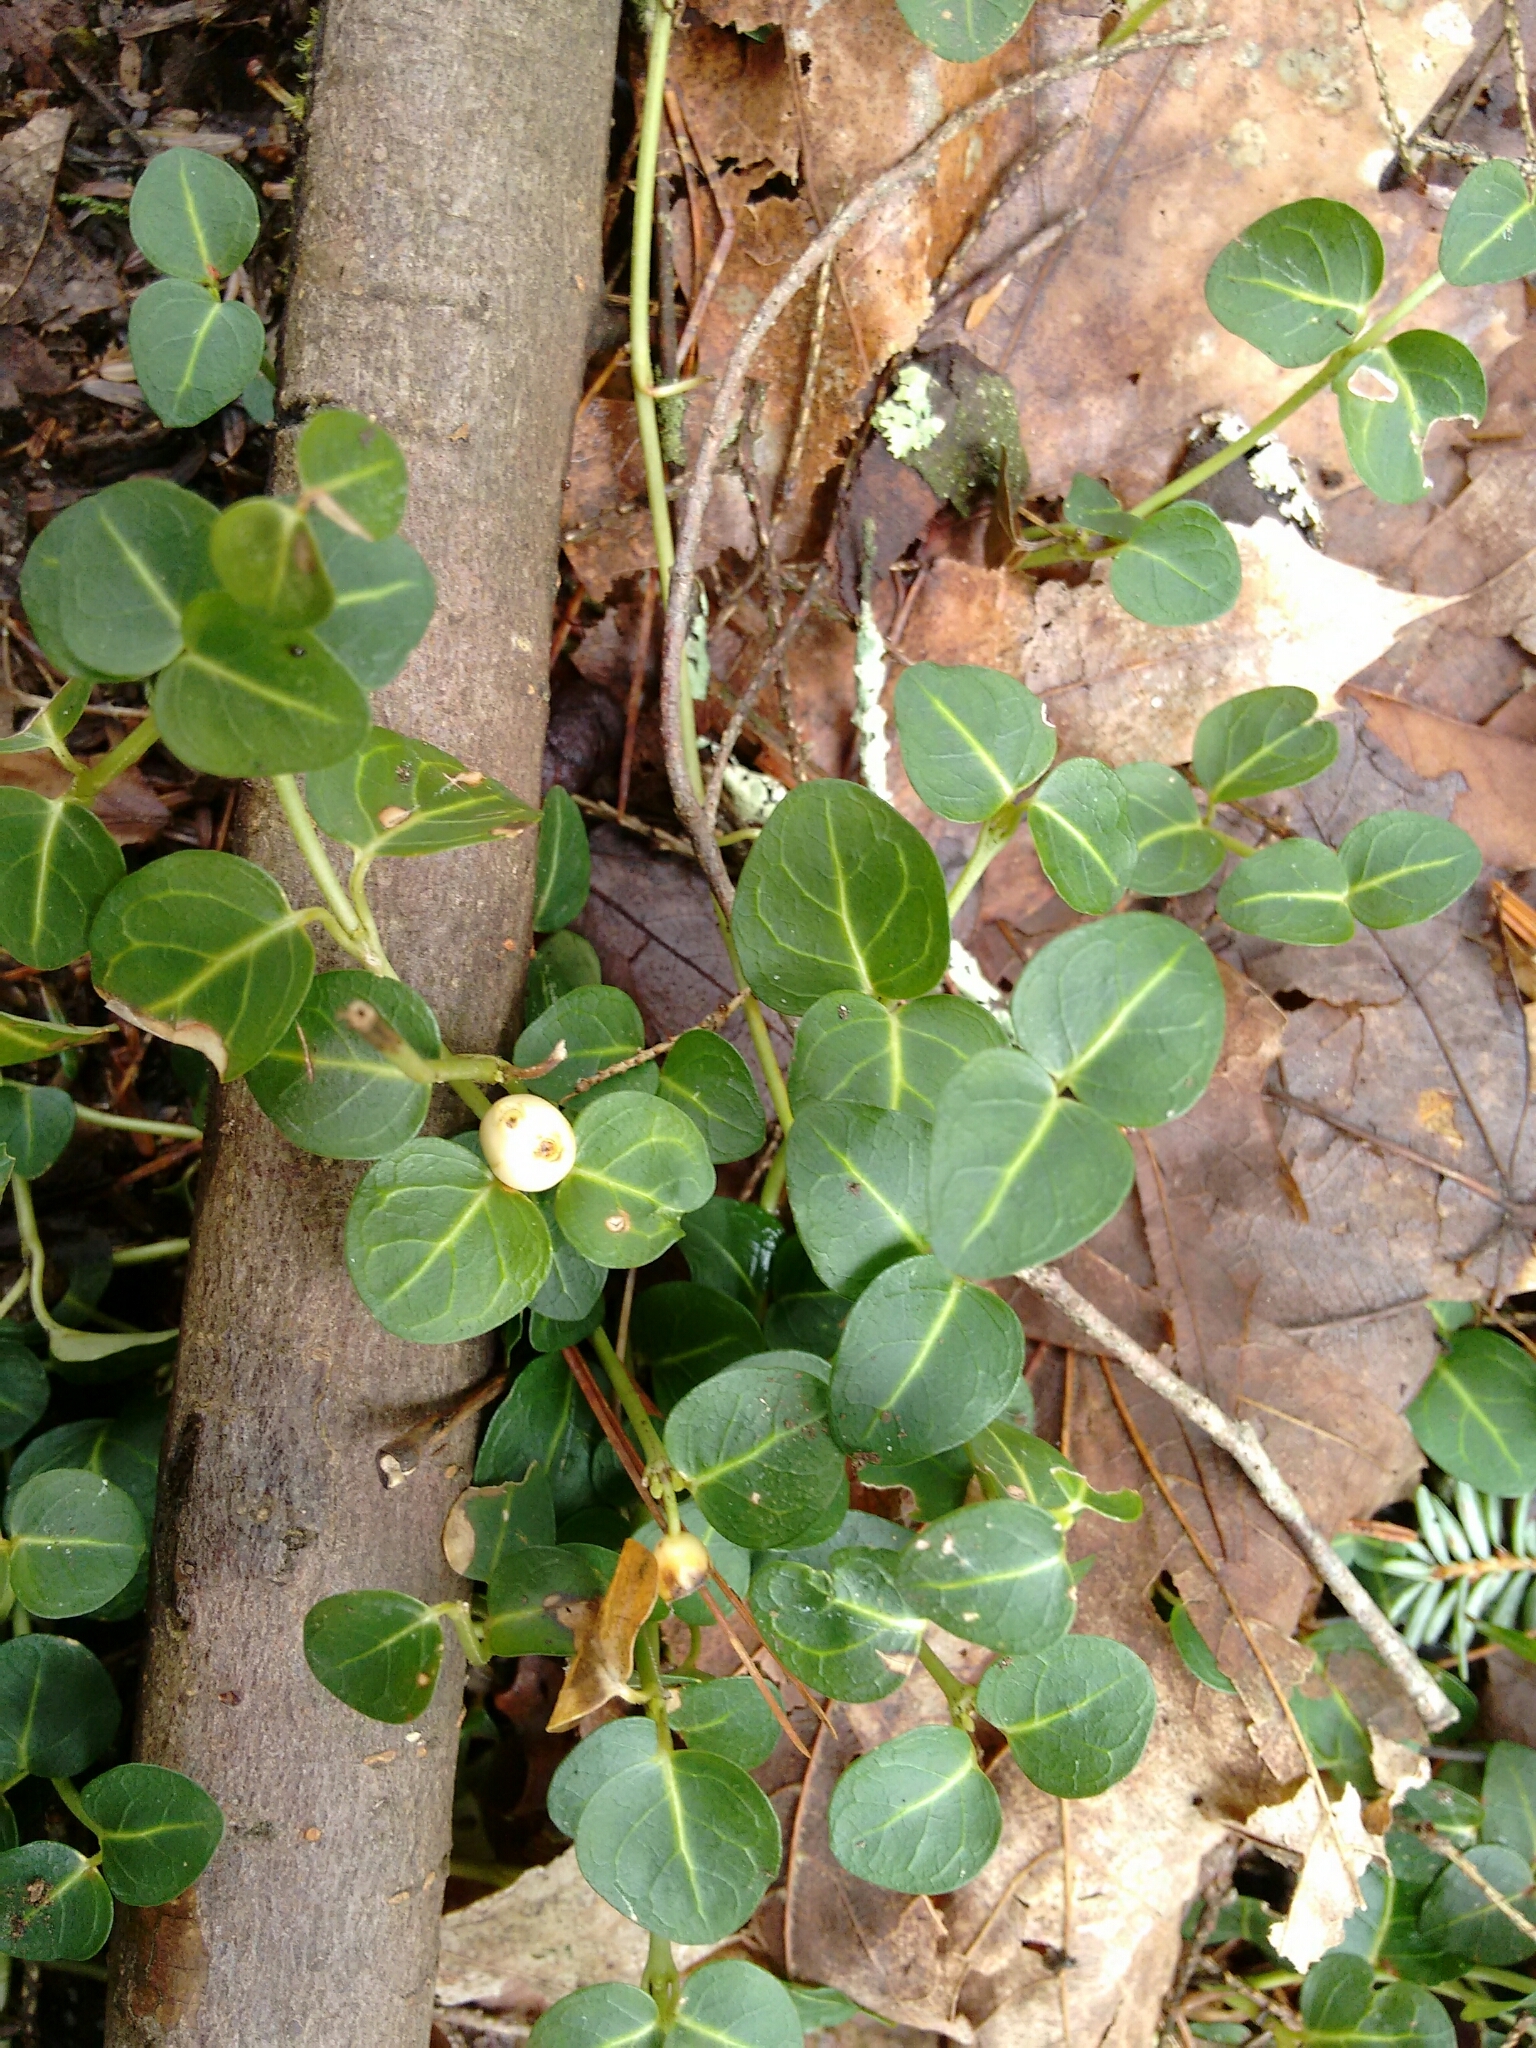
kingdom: Plantae
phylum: Tracheophyta
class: Magnoliopsida
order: Gentianales
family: Rubiaceae
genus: Mitchella
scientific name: Mitchella repens
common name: Partridge-berry
